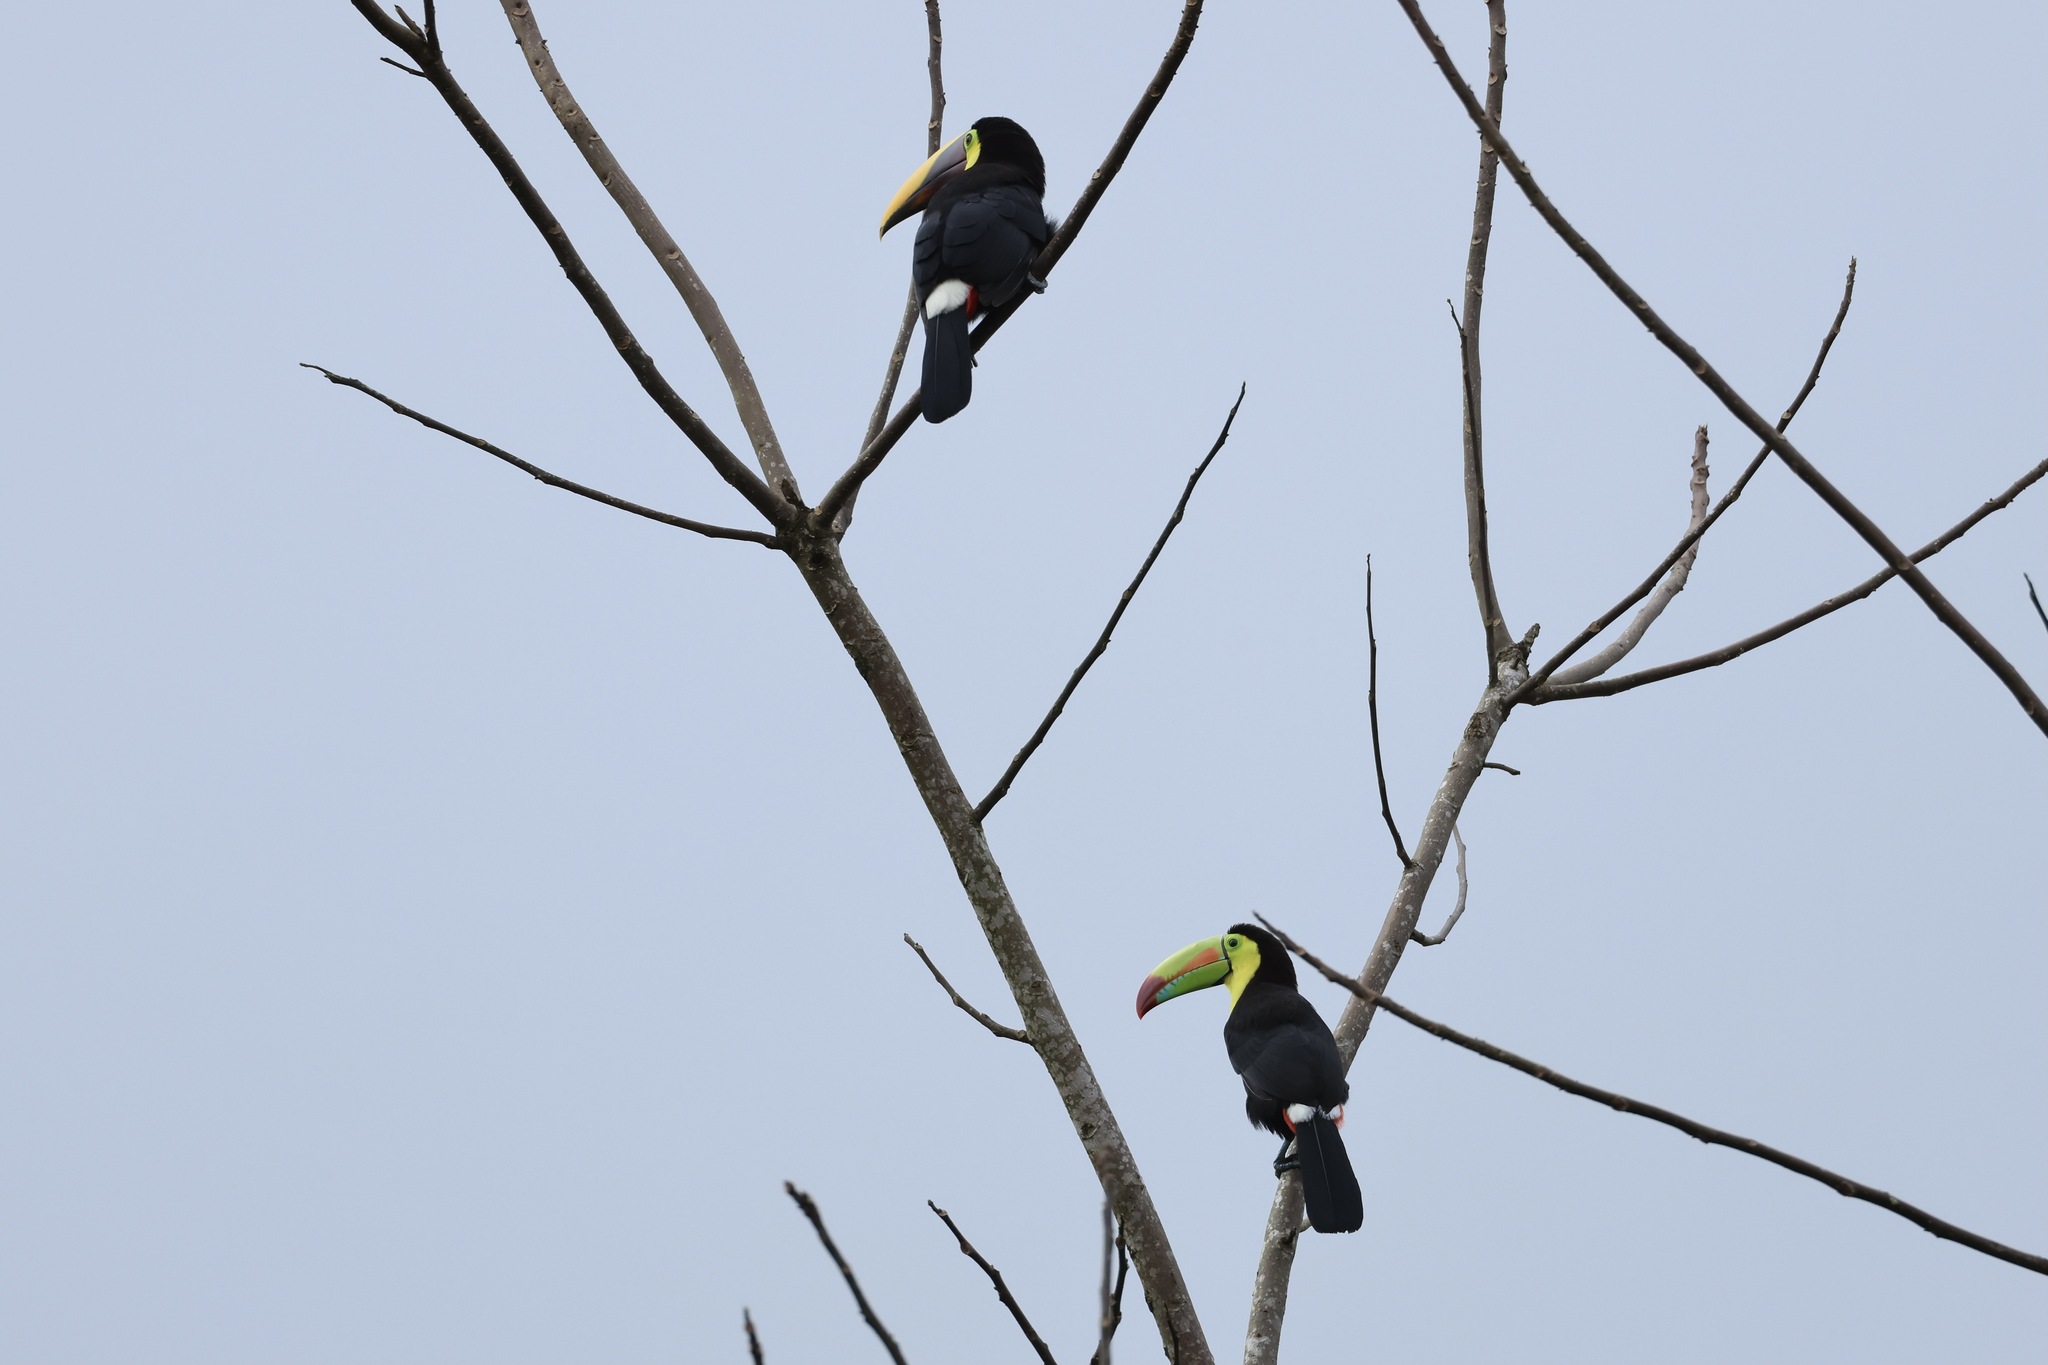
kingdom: Animalia
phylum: Chordata
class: Aves
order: Piciformes
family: Ramphastidae
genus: Ramphastos
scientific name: Ramphastos sulfuratus
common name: Keel-billed toucan
